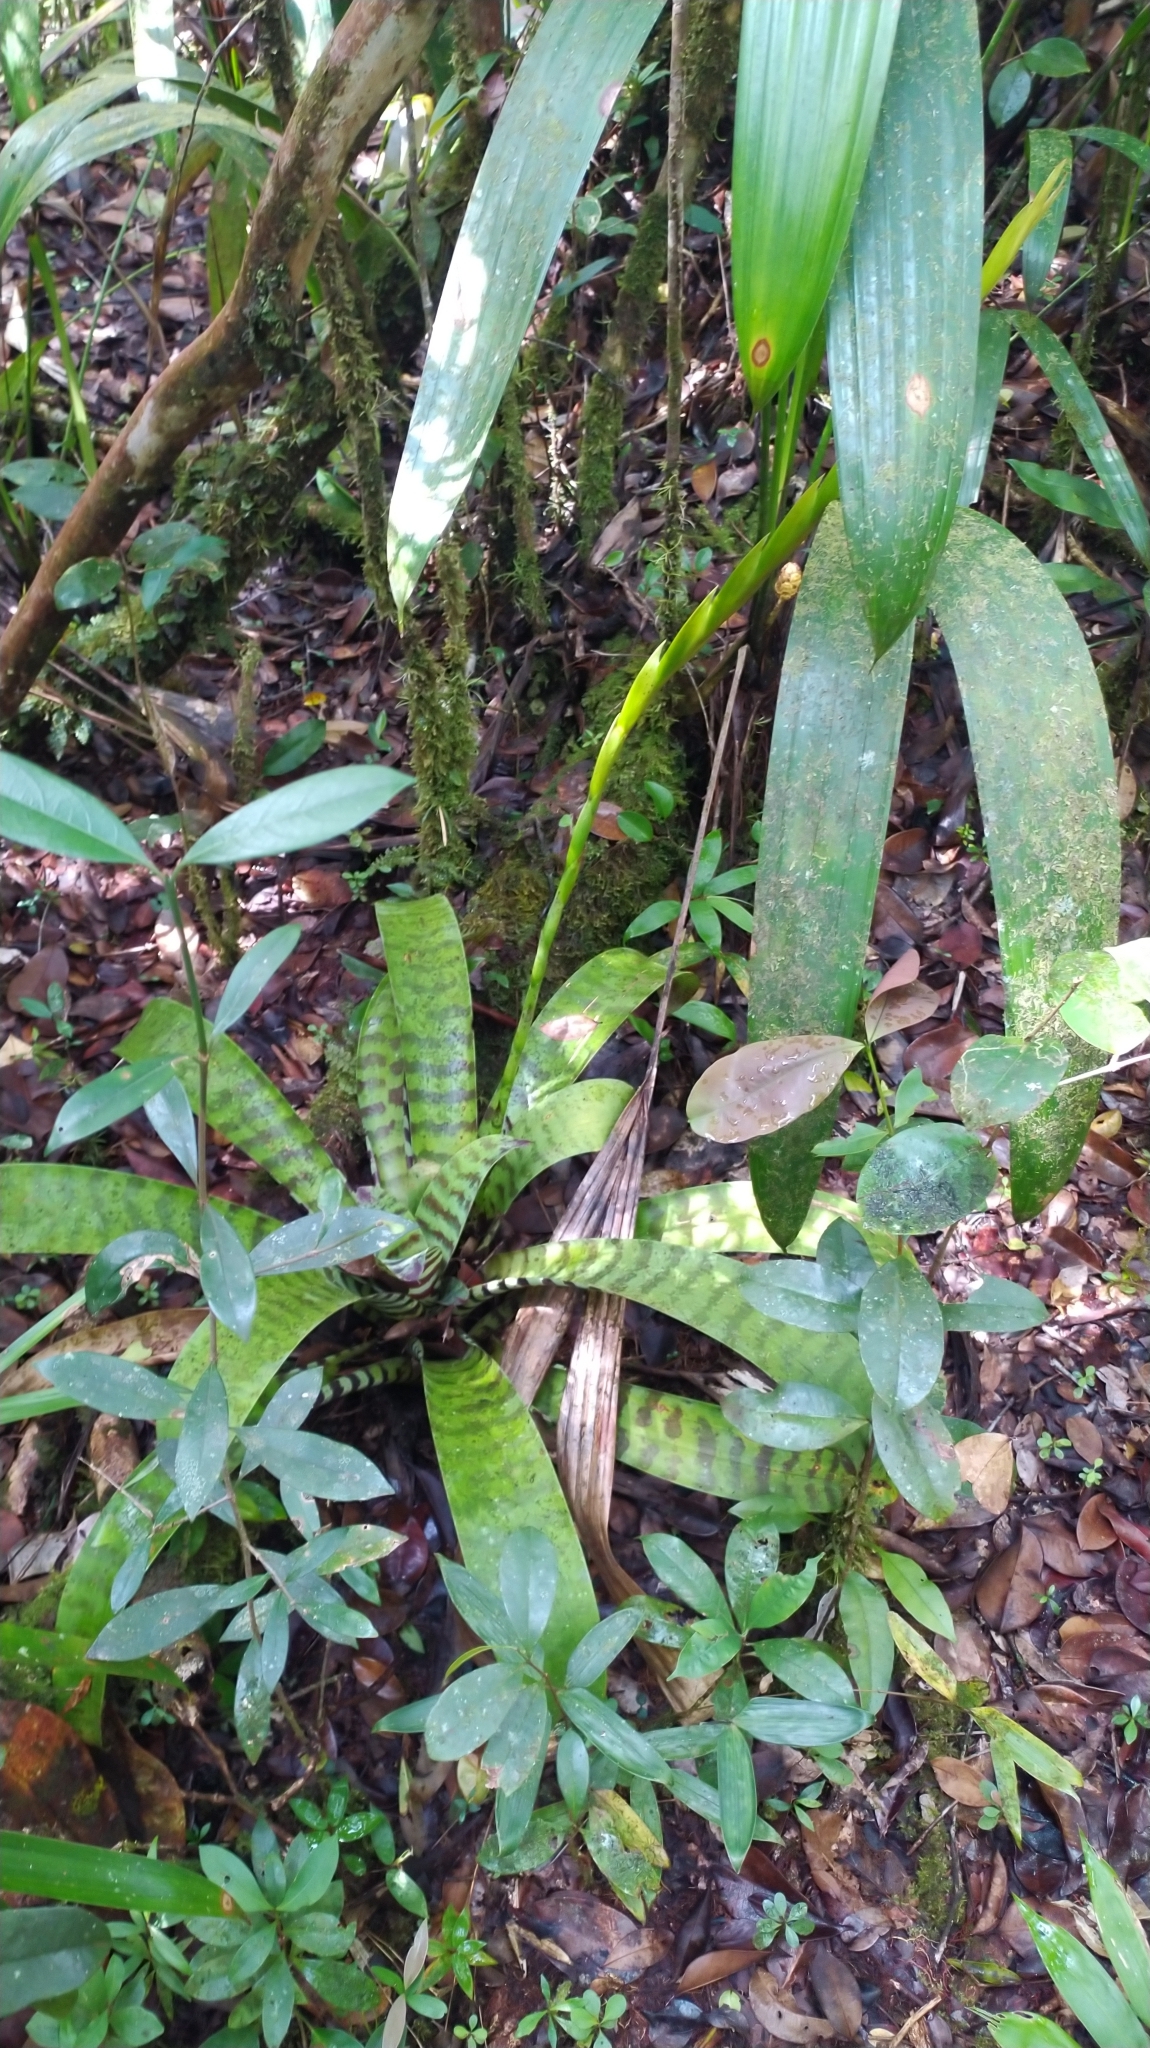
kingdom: Plantae
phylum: Tracheophyta
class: Liliopsida
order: Poales
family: Bromeliaceae
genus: Lutheria
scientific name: Lutheria splendens
